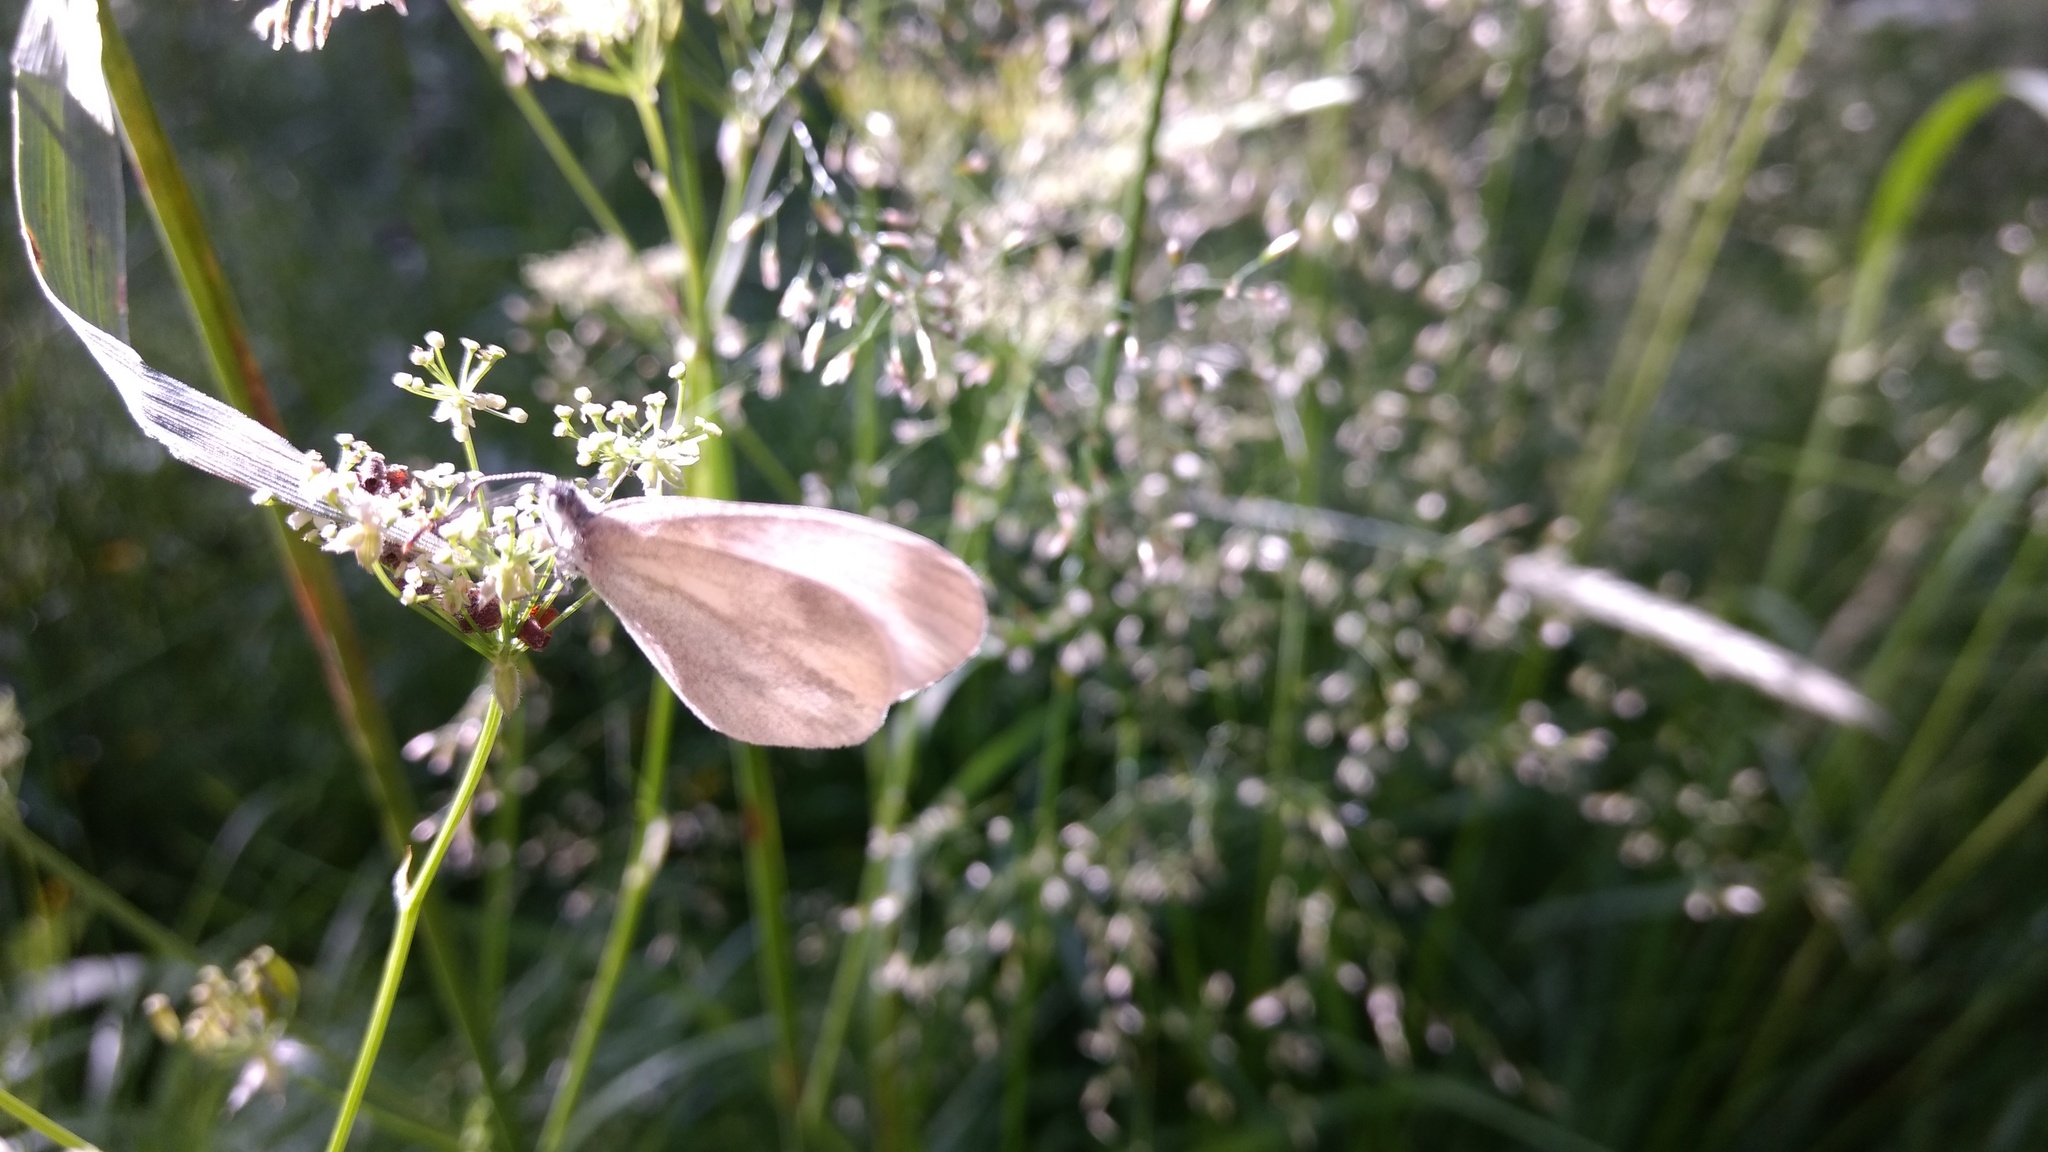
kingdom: Animalia
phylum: Arthropoda
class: Insecta
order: Lepidoptera
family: Pieridae
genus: Leptidea
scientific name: Leptidea
